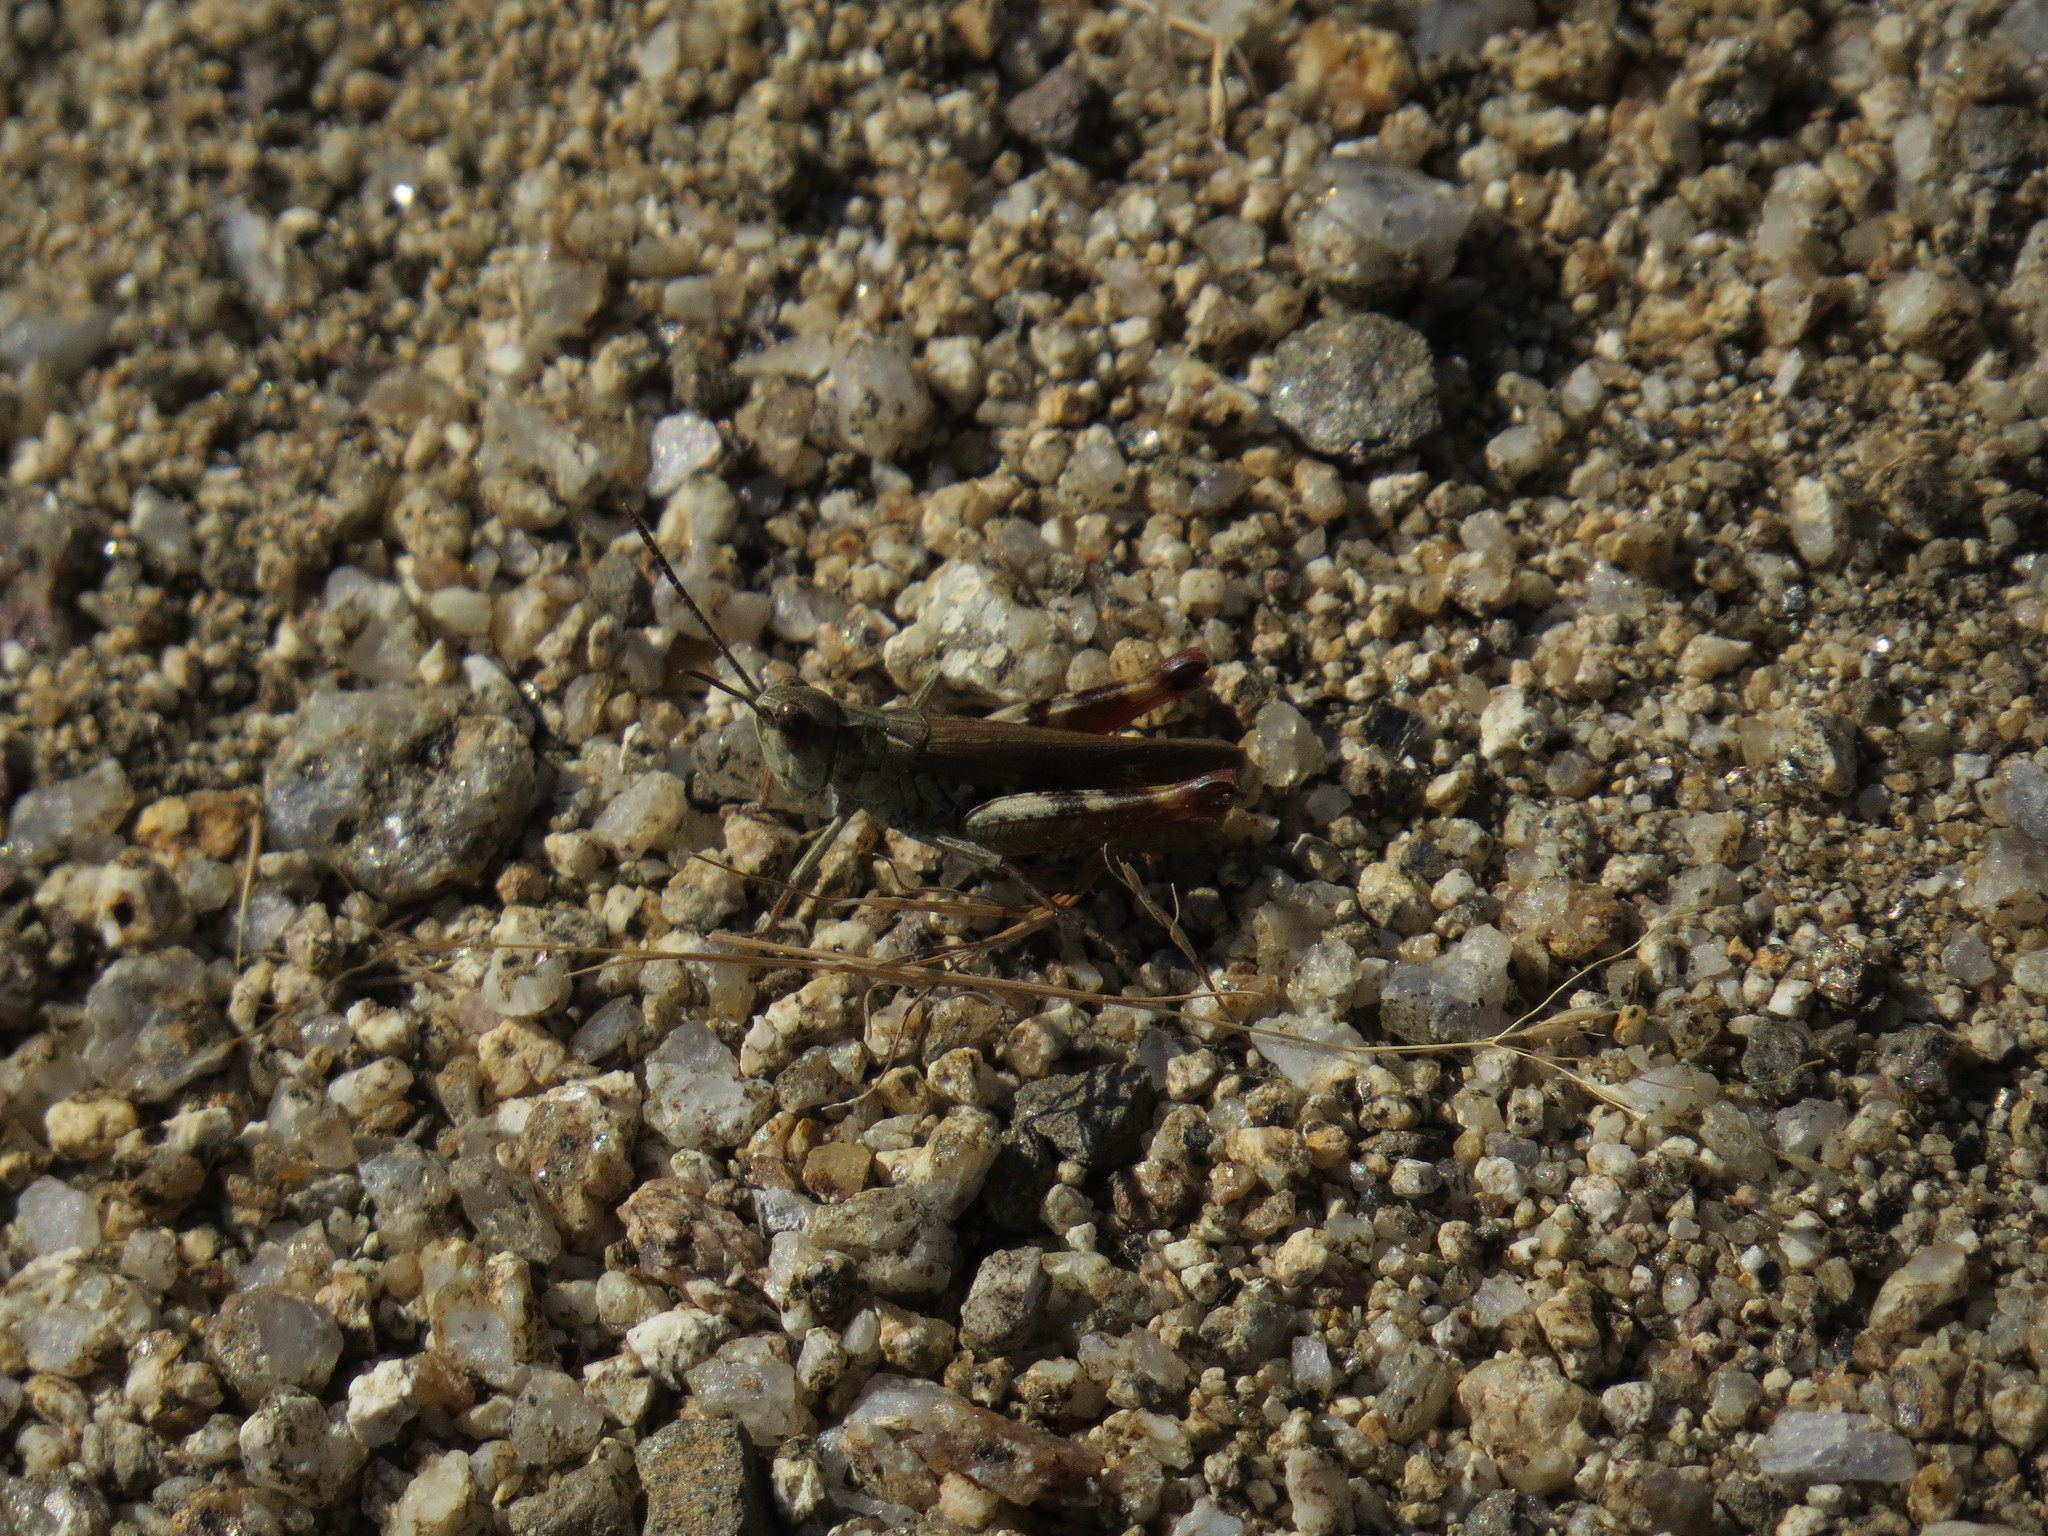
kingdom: Animalia
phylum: Arthropoda
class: Insecta
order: Orthoptera
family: Acrididae
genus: Chorthippus
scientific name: Chorthippus binotatus
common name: Two-marked grasshopper
